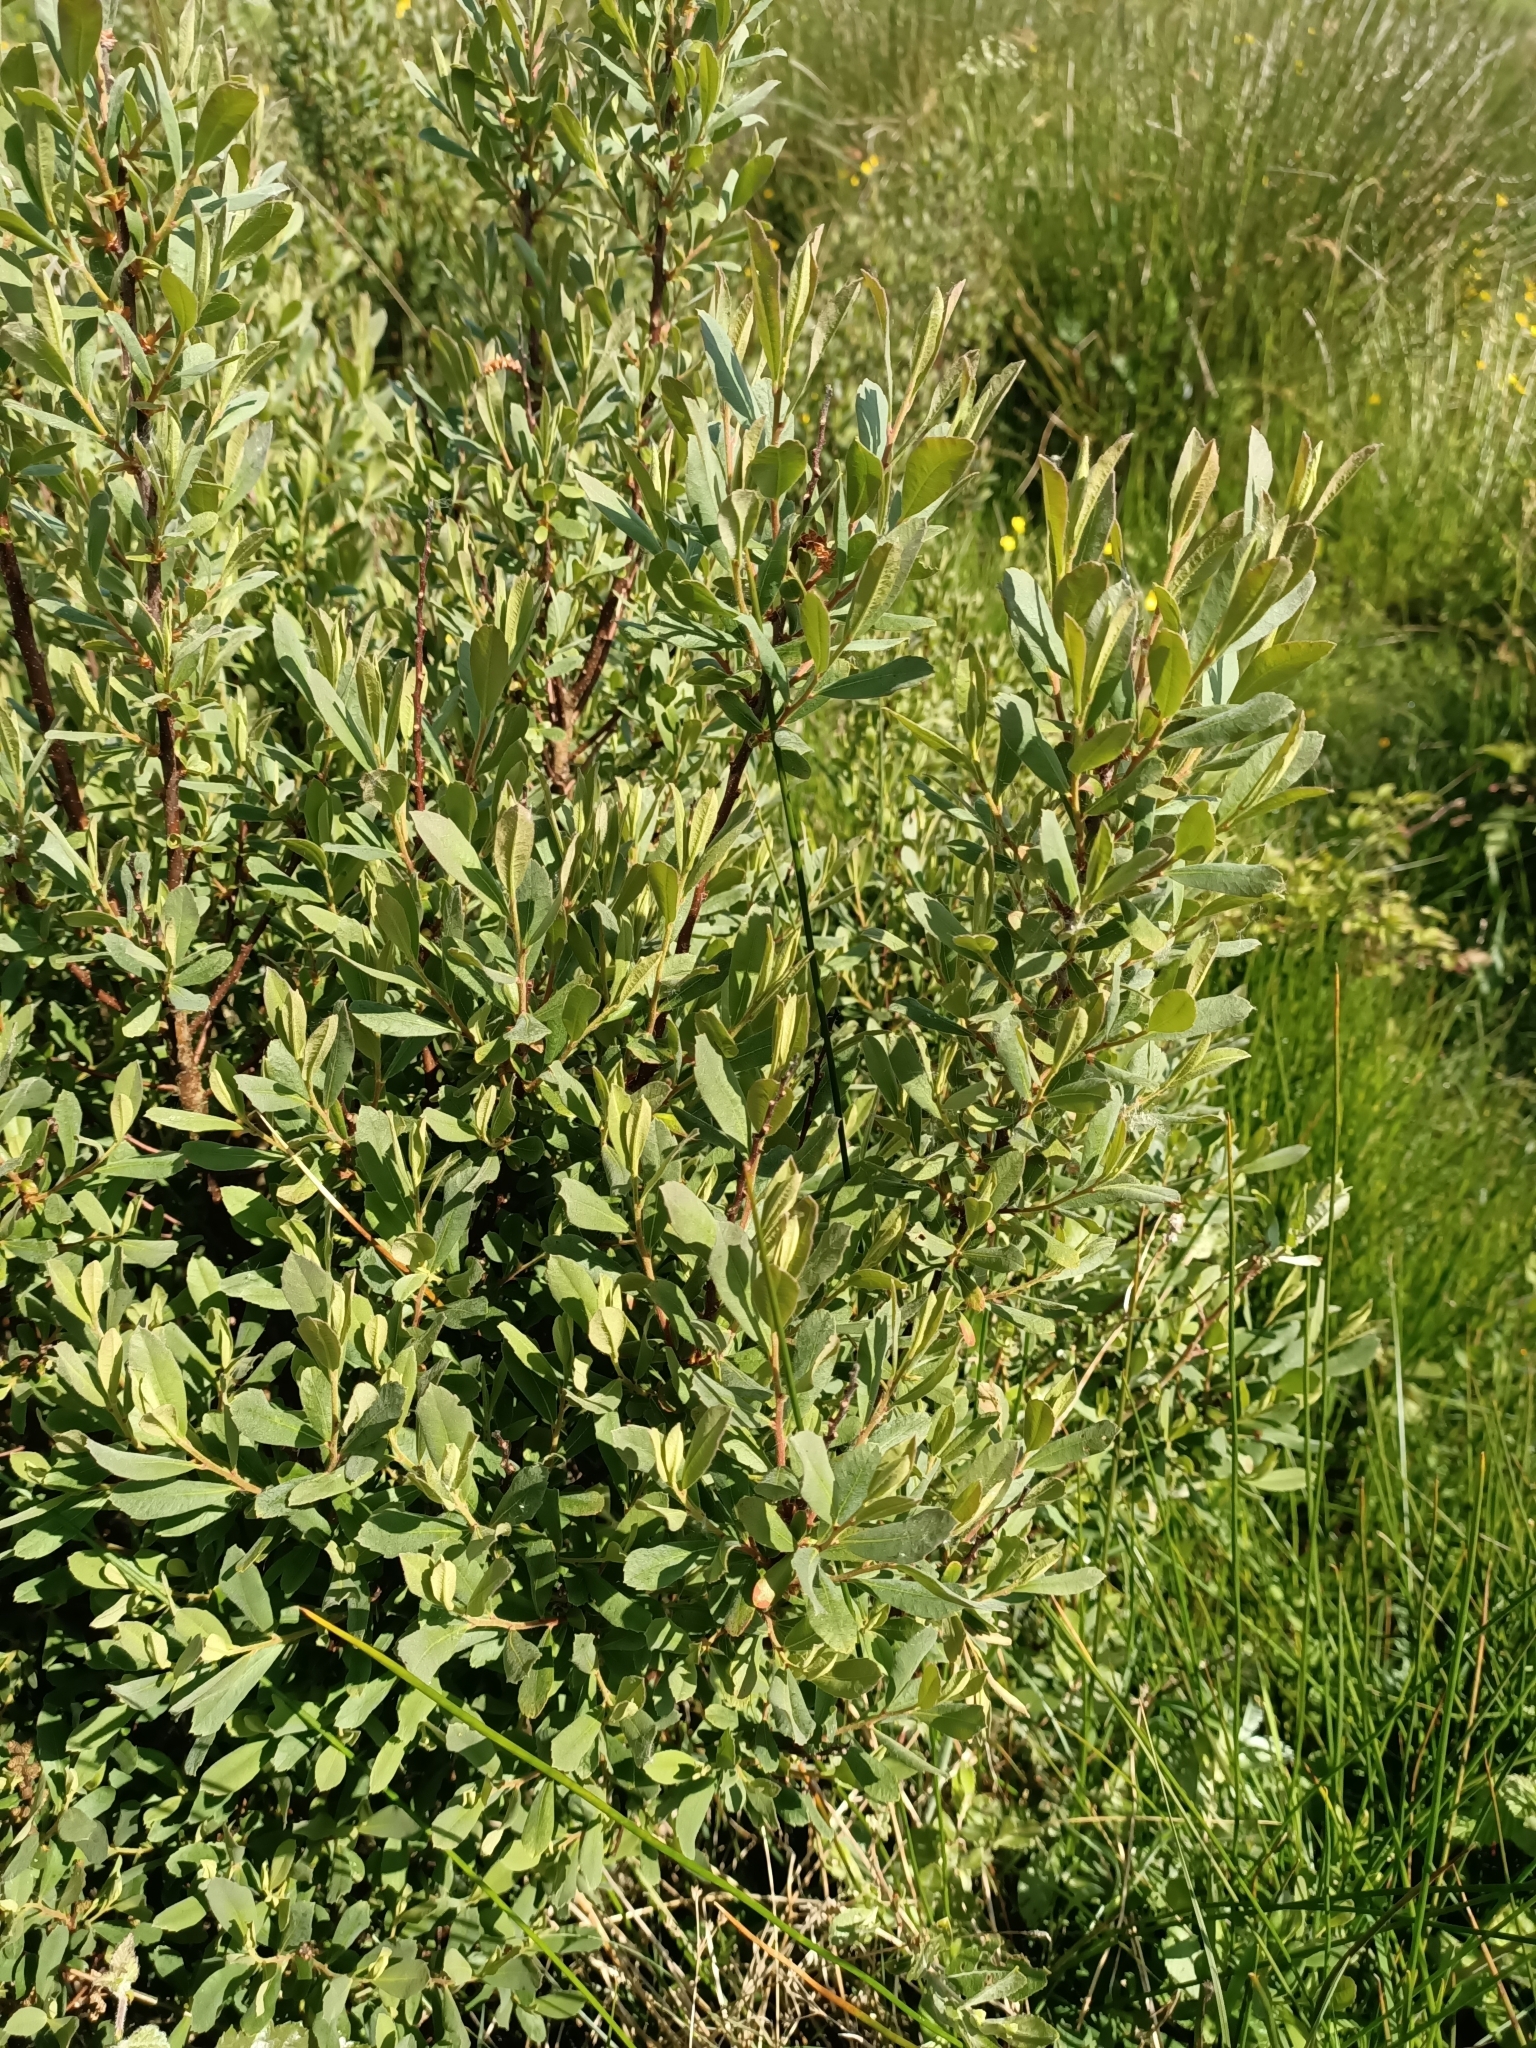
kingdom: Plantae
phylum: Tracheophyta
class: Magnoliopsida
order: Fagales
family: Myricaceae
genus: Myrica
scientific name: Myrica gale
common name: Sweet gale
